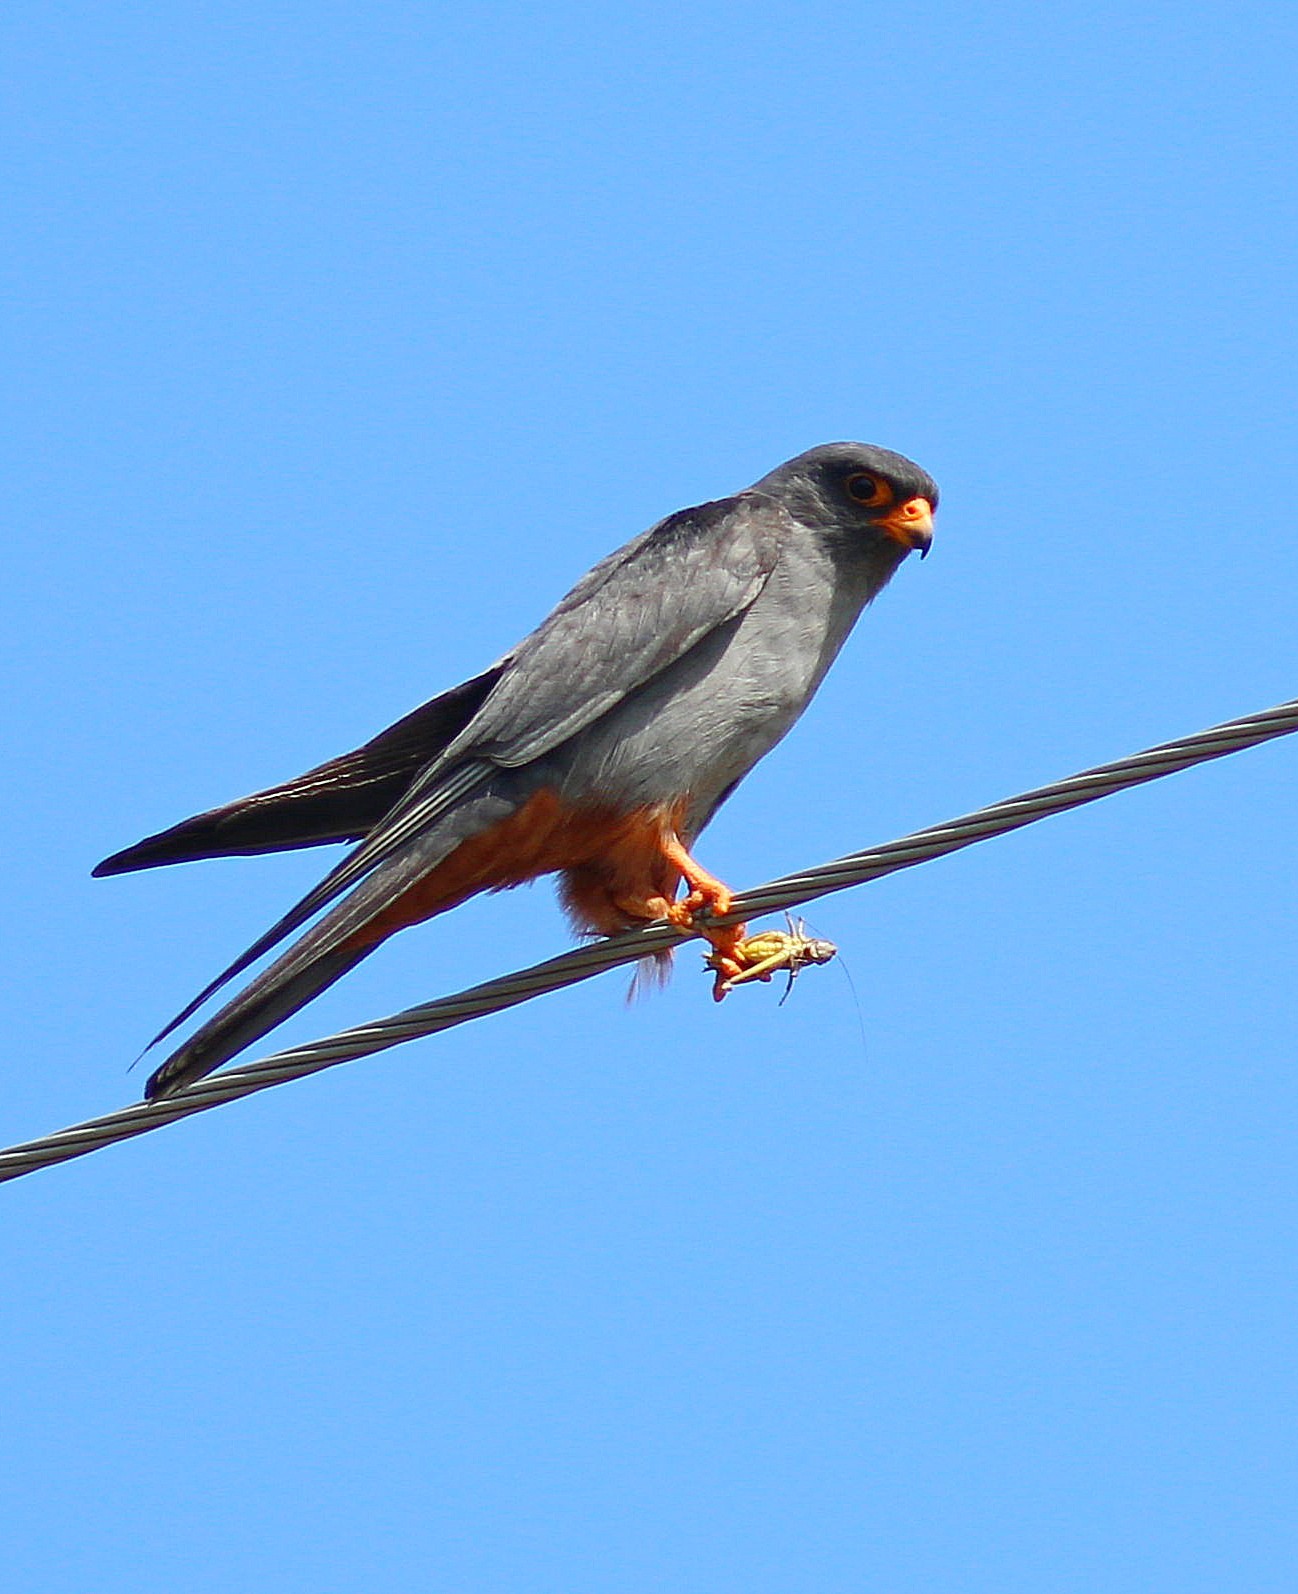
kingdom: Animalia
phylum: Chordata
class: Aves
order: Falconiformes
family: Falconidae
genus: Falco
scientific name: Falco vespertinus
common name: Red-footed falcon
